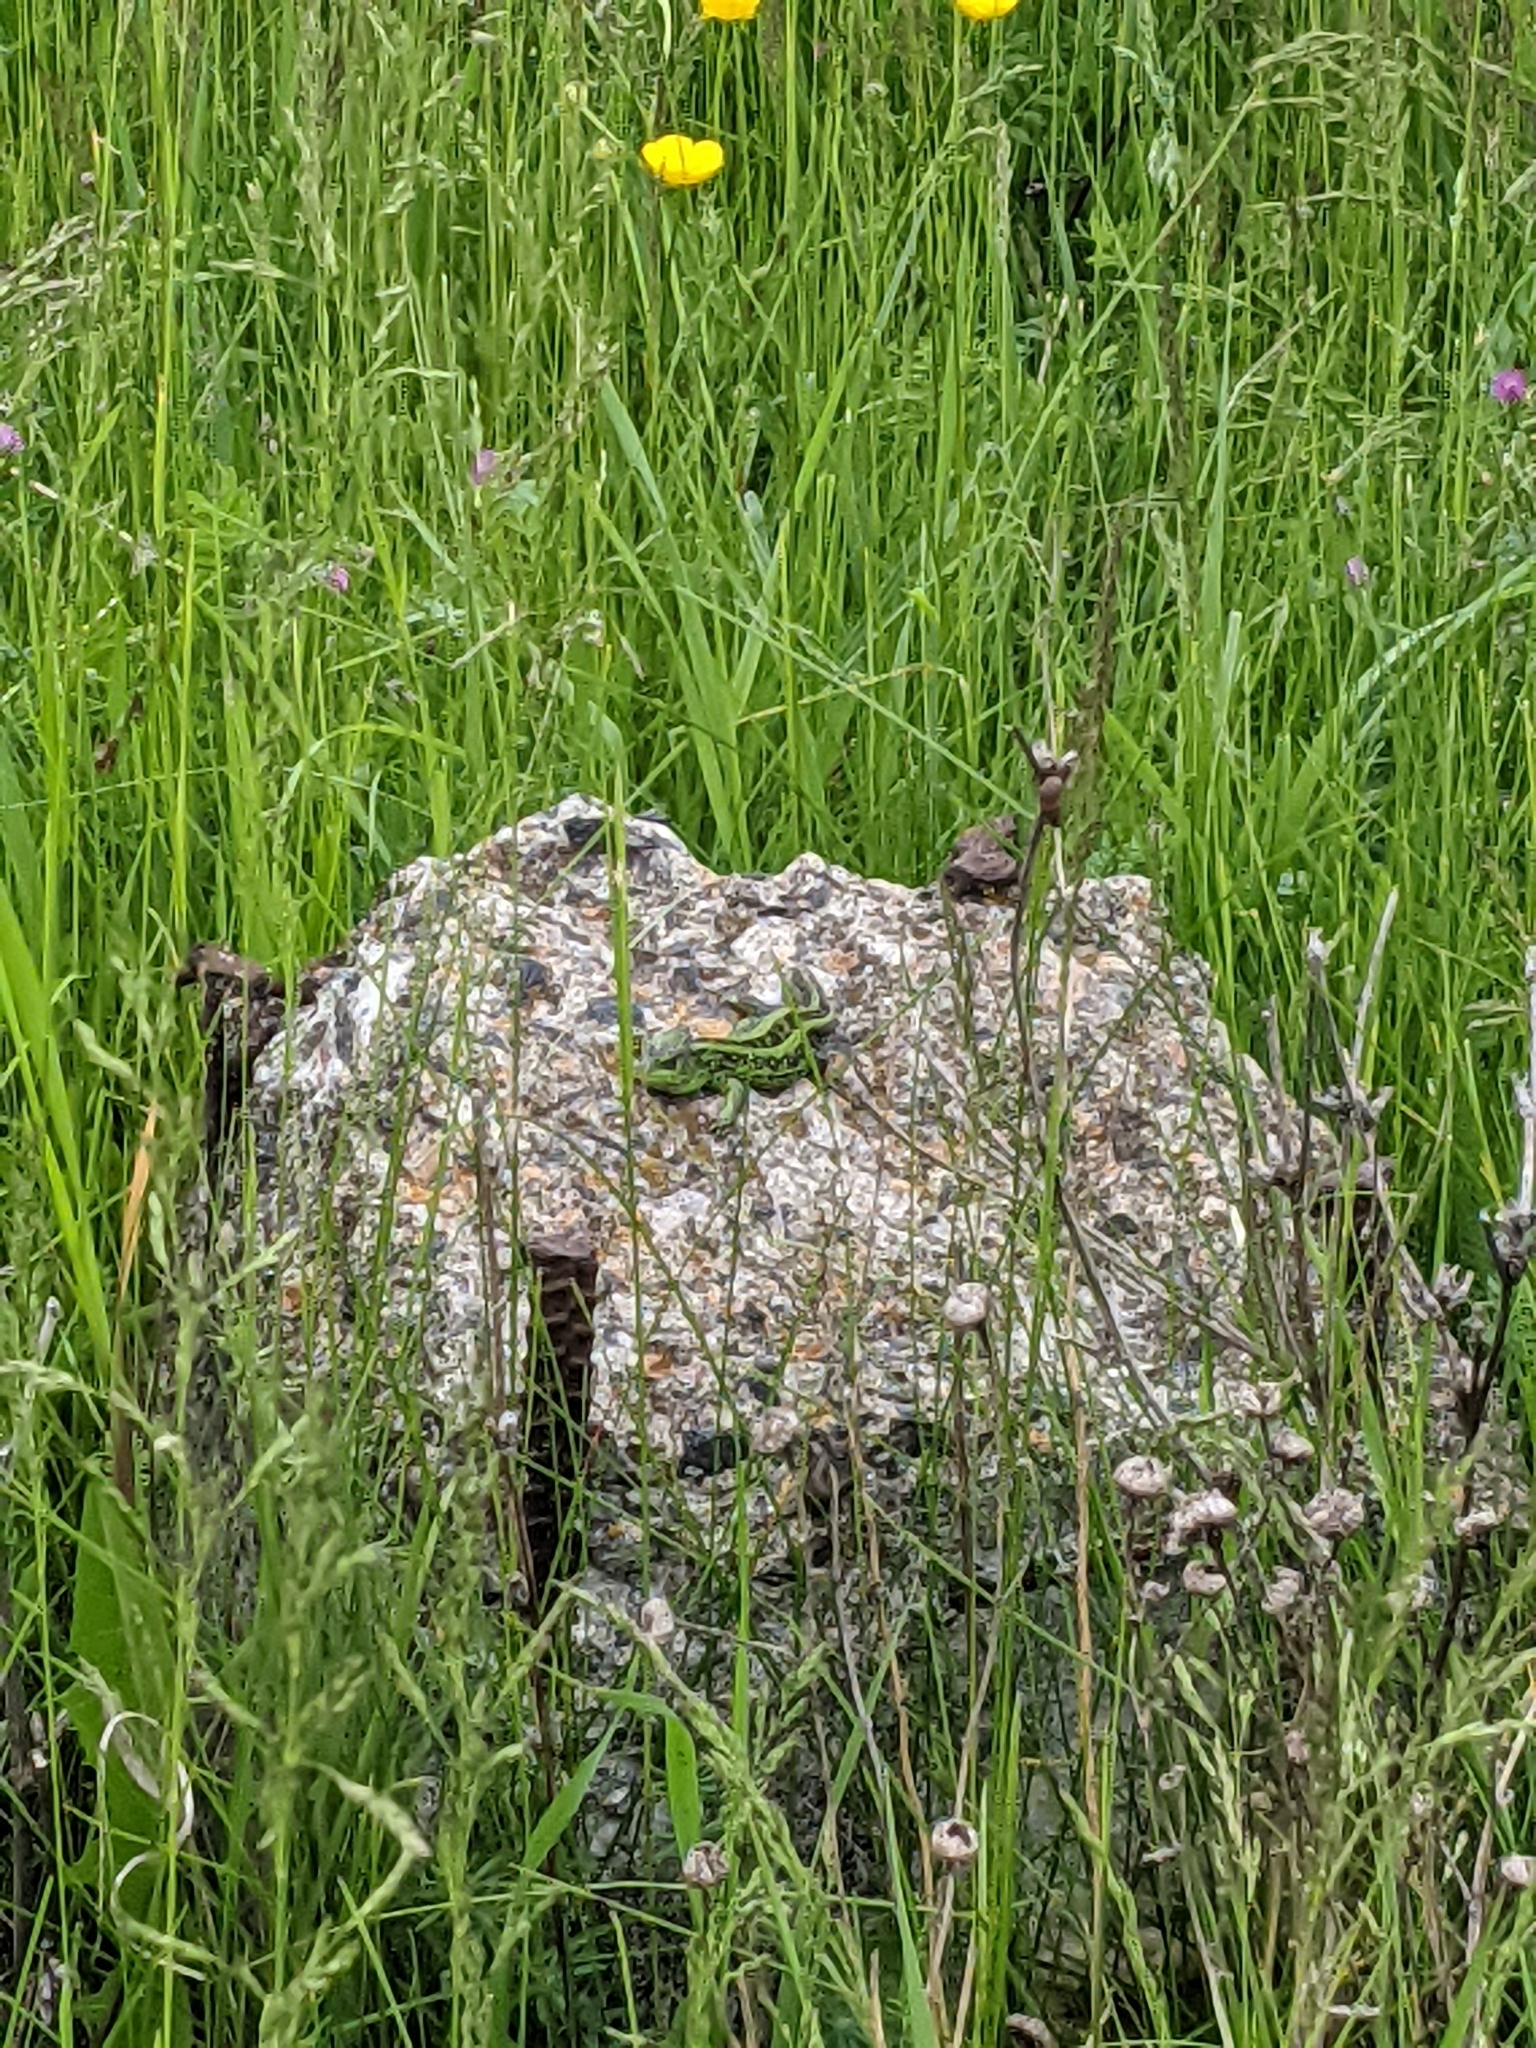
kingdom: Animalia
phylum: Chordata
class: Squamata
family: Lacertidae
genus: Lacerta
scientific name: Lacerta agilis
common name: Sand lizard
